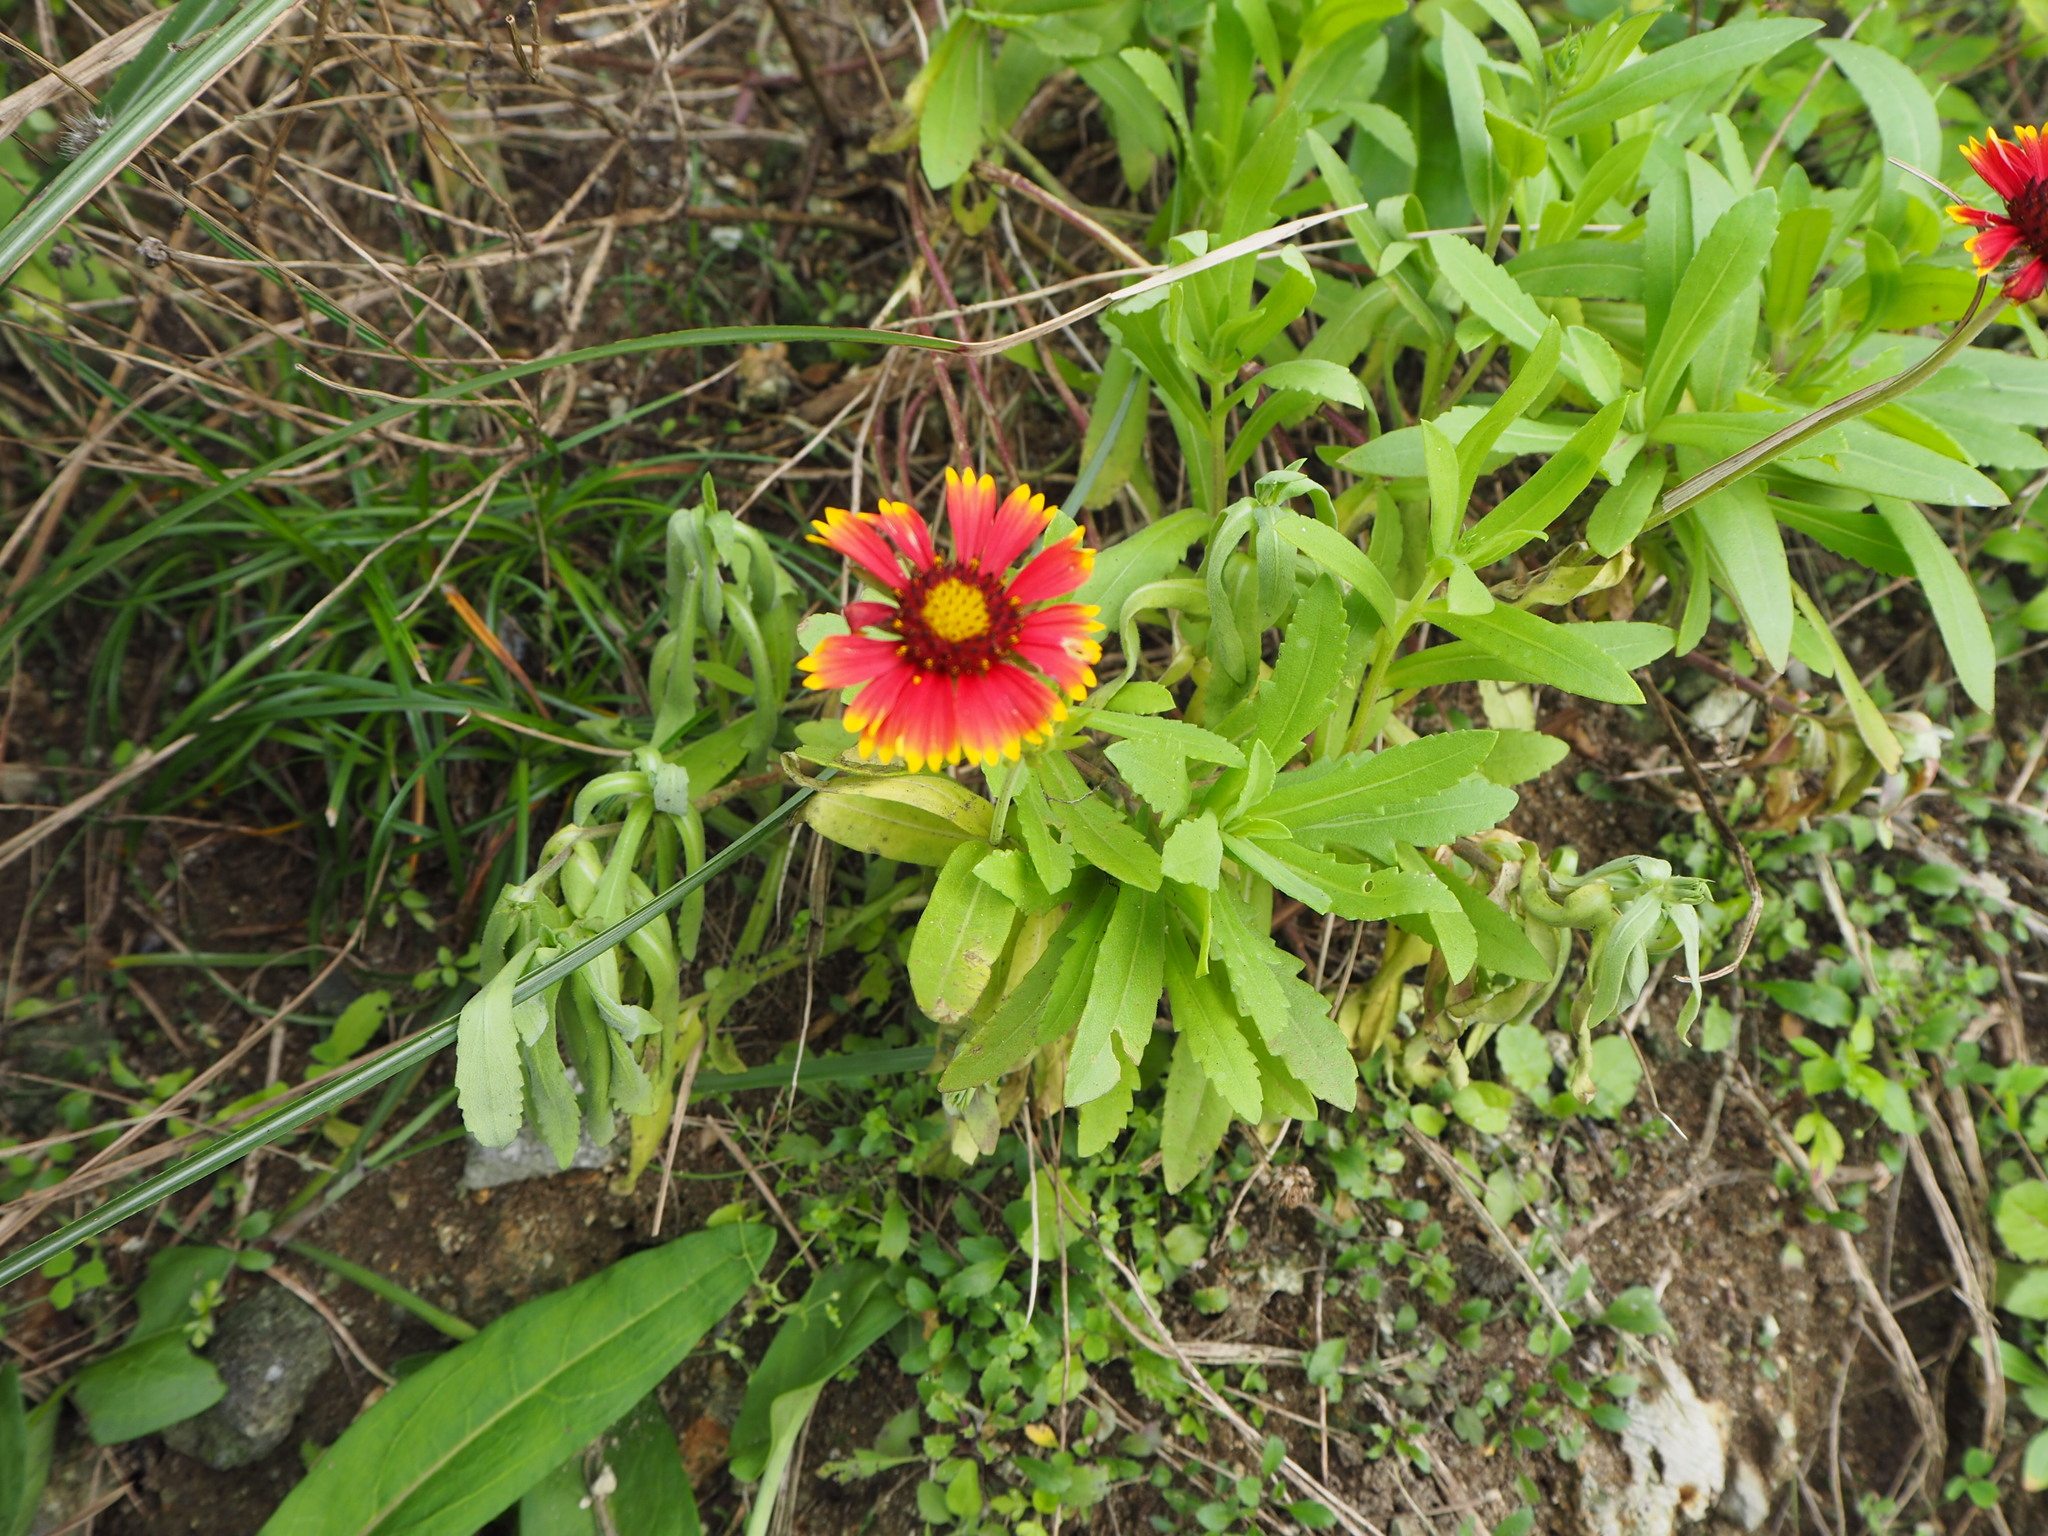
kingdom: Plantae
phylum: Tracheophyta
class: Magnoliopsida
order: Asterales
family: Asteraceae
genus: Gaillardia
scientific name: Gaillardia pulchella
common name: Firewheel
